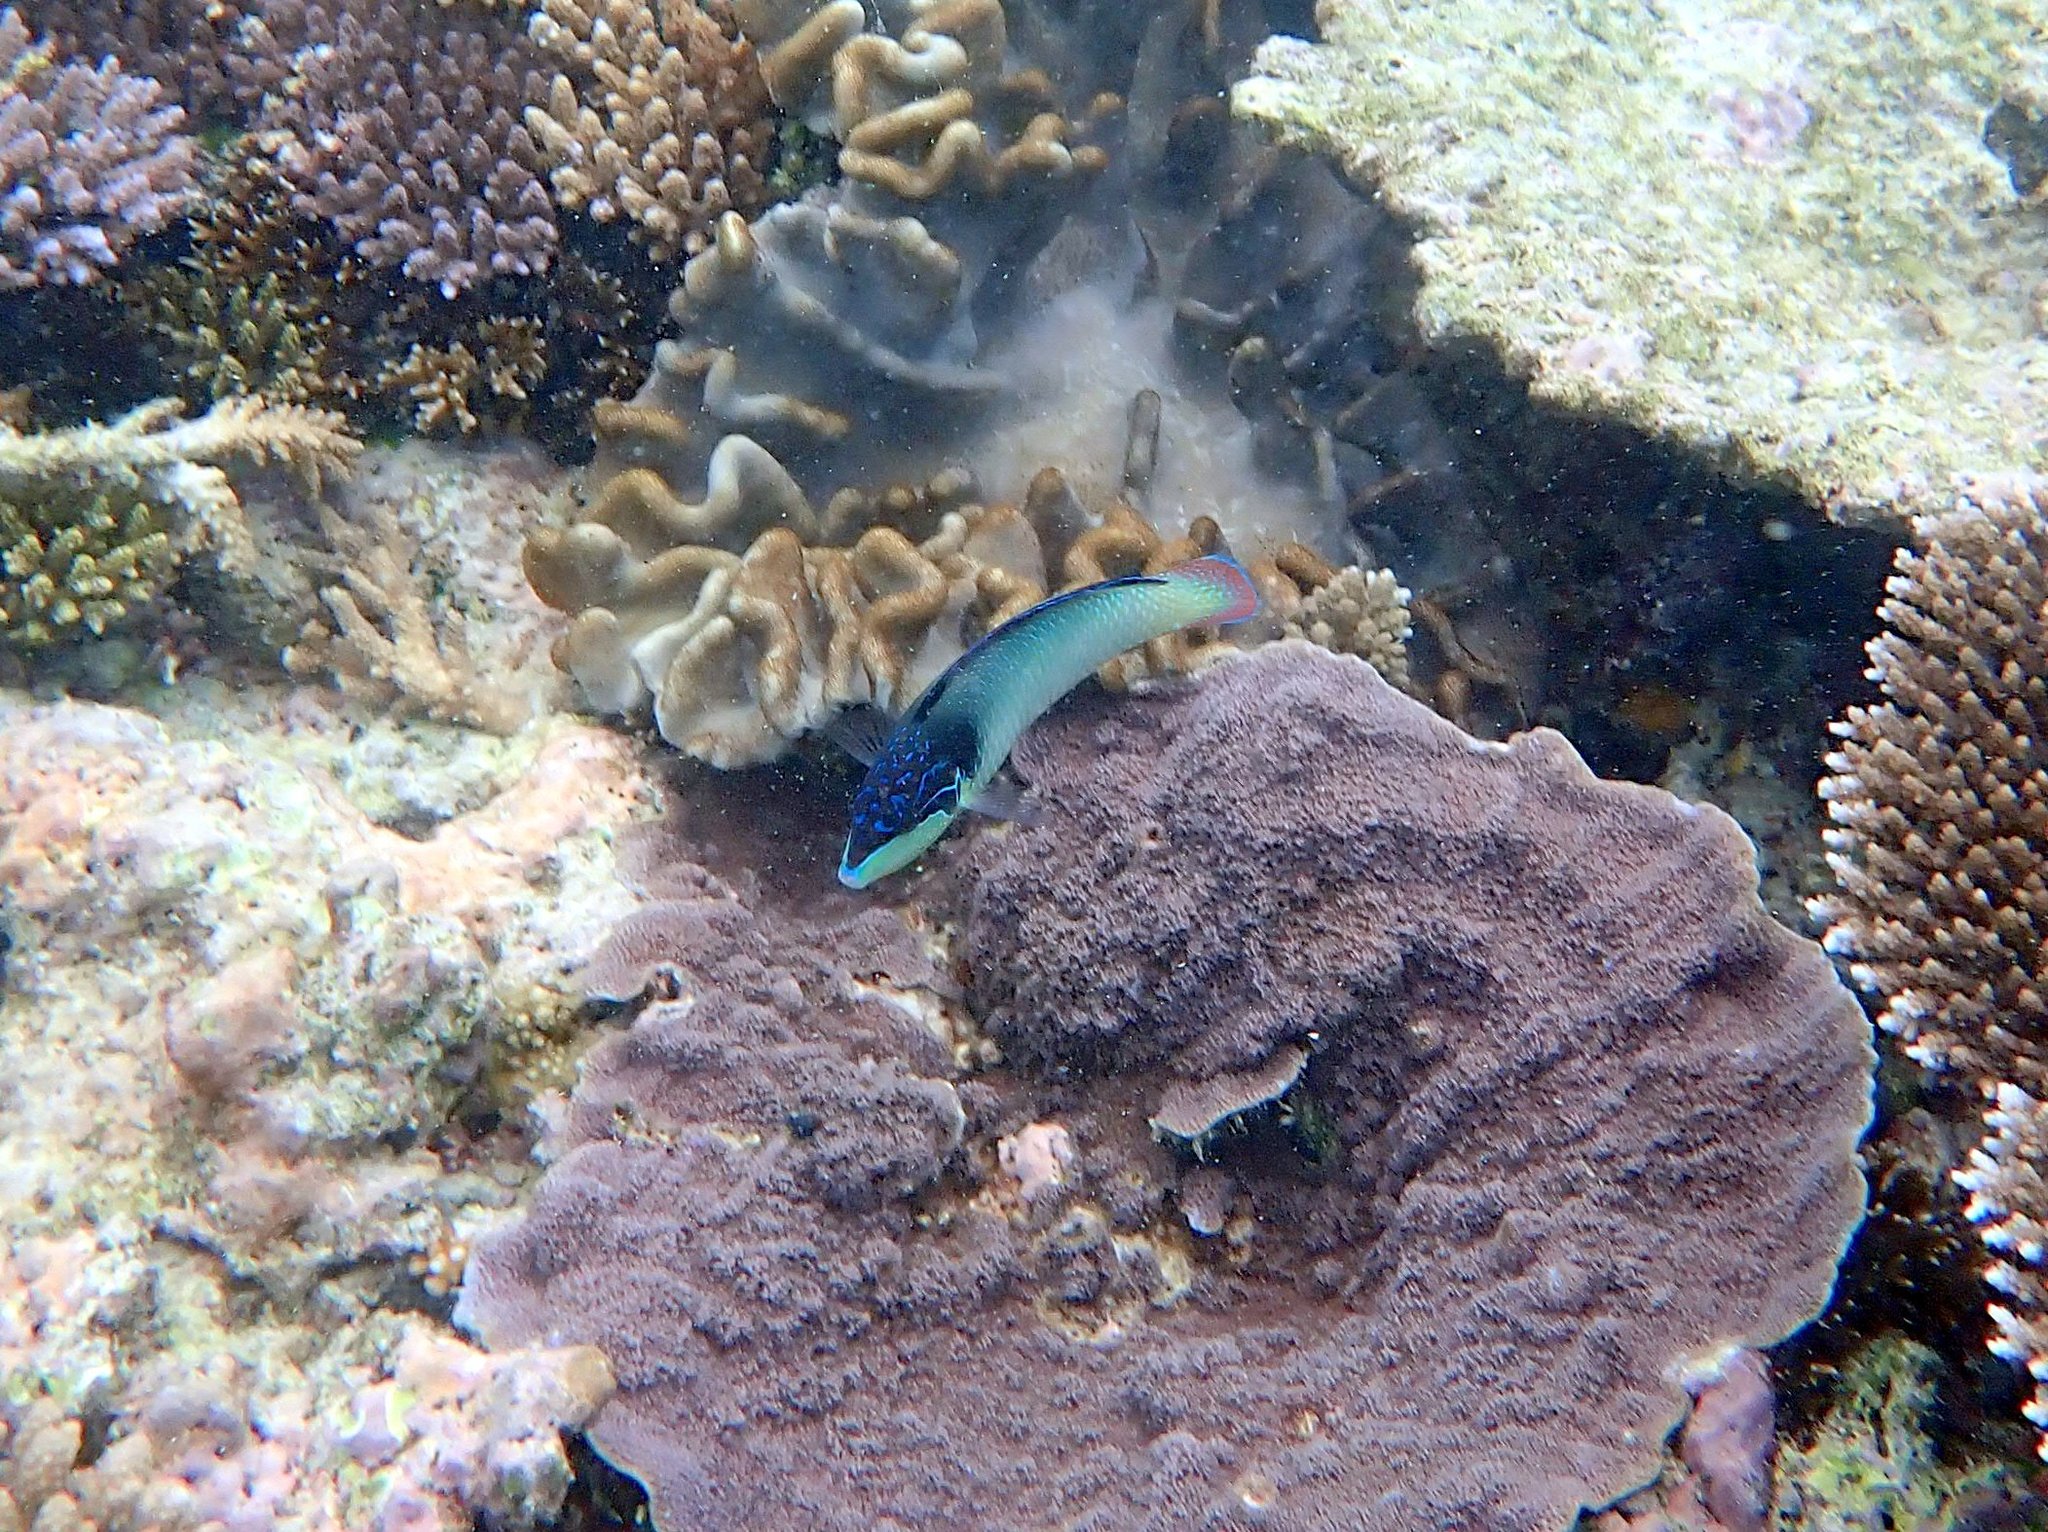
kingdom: Animalia
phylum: Chordata
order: Perciformes
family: Labridae
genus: Anampses
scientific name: Anampses neoguinaicus
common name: New guinea wrasse
